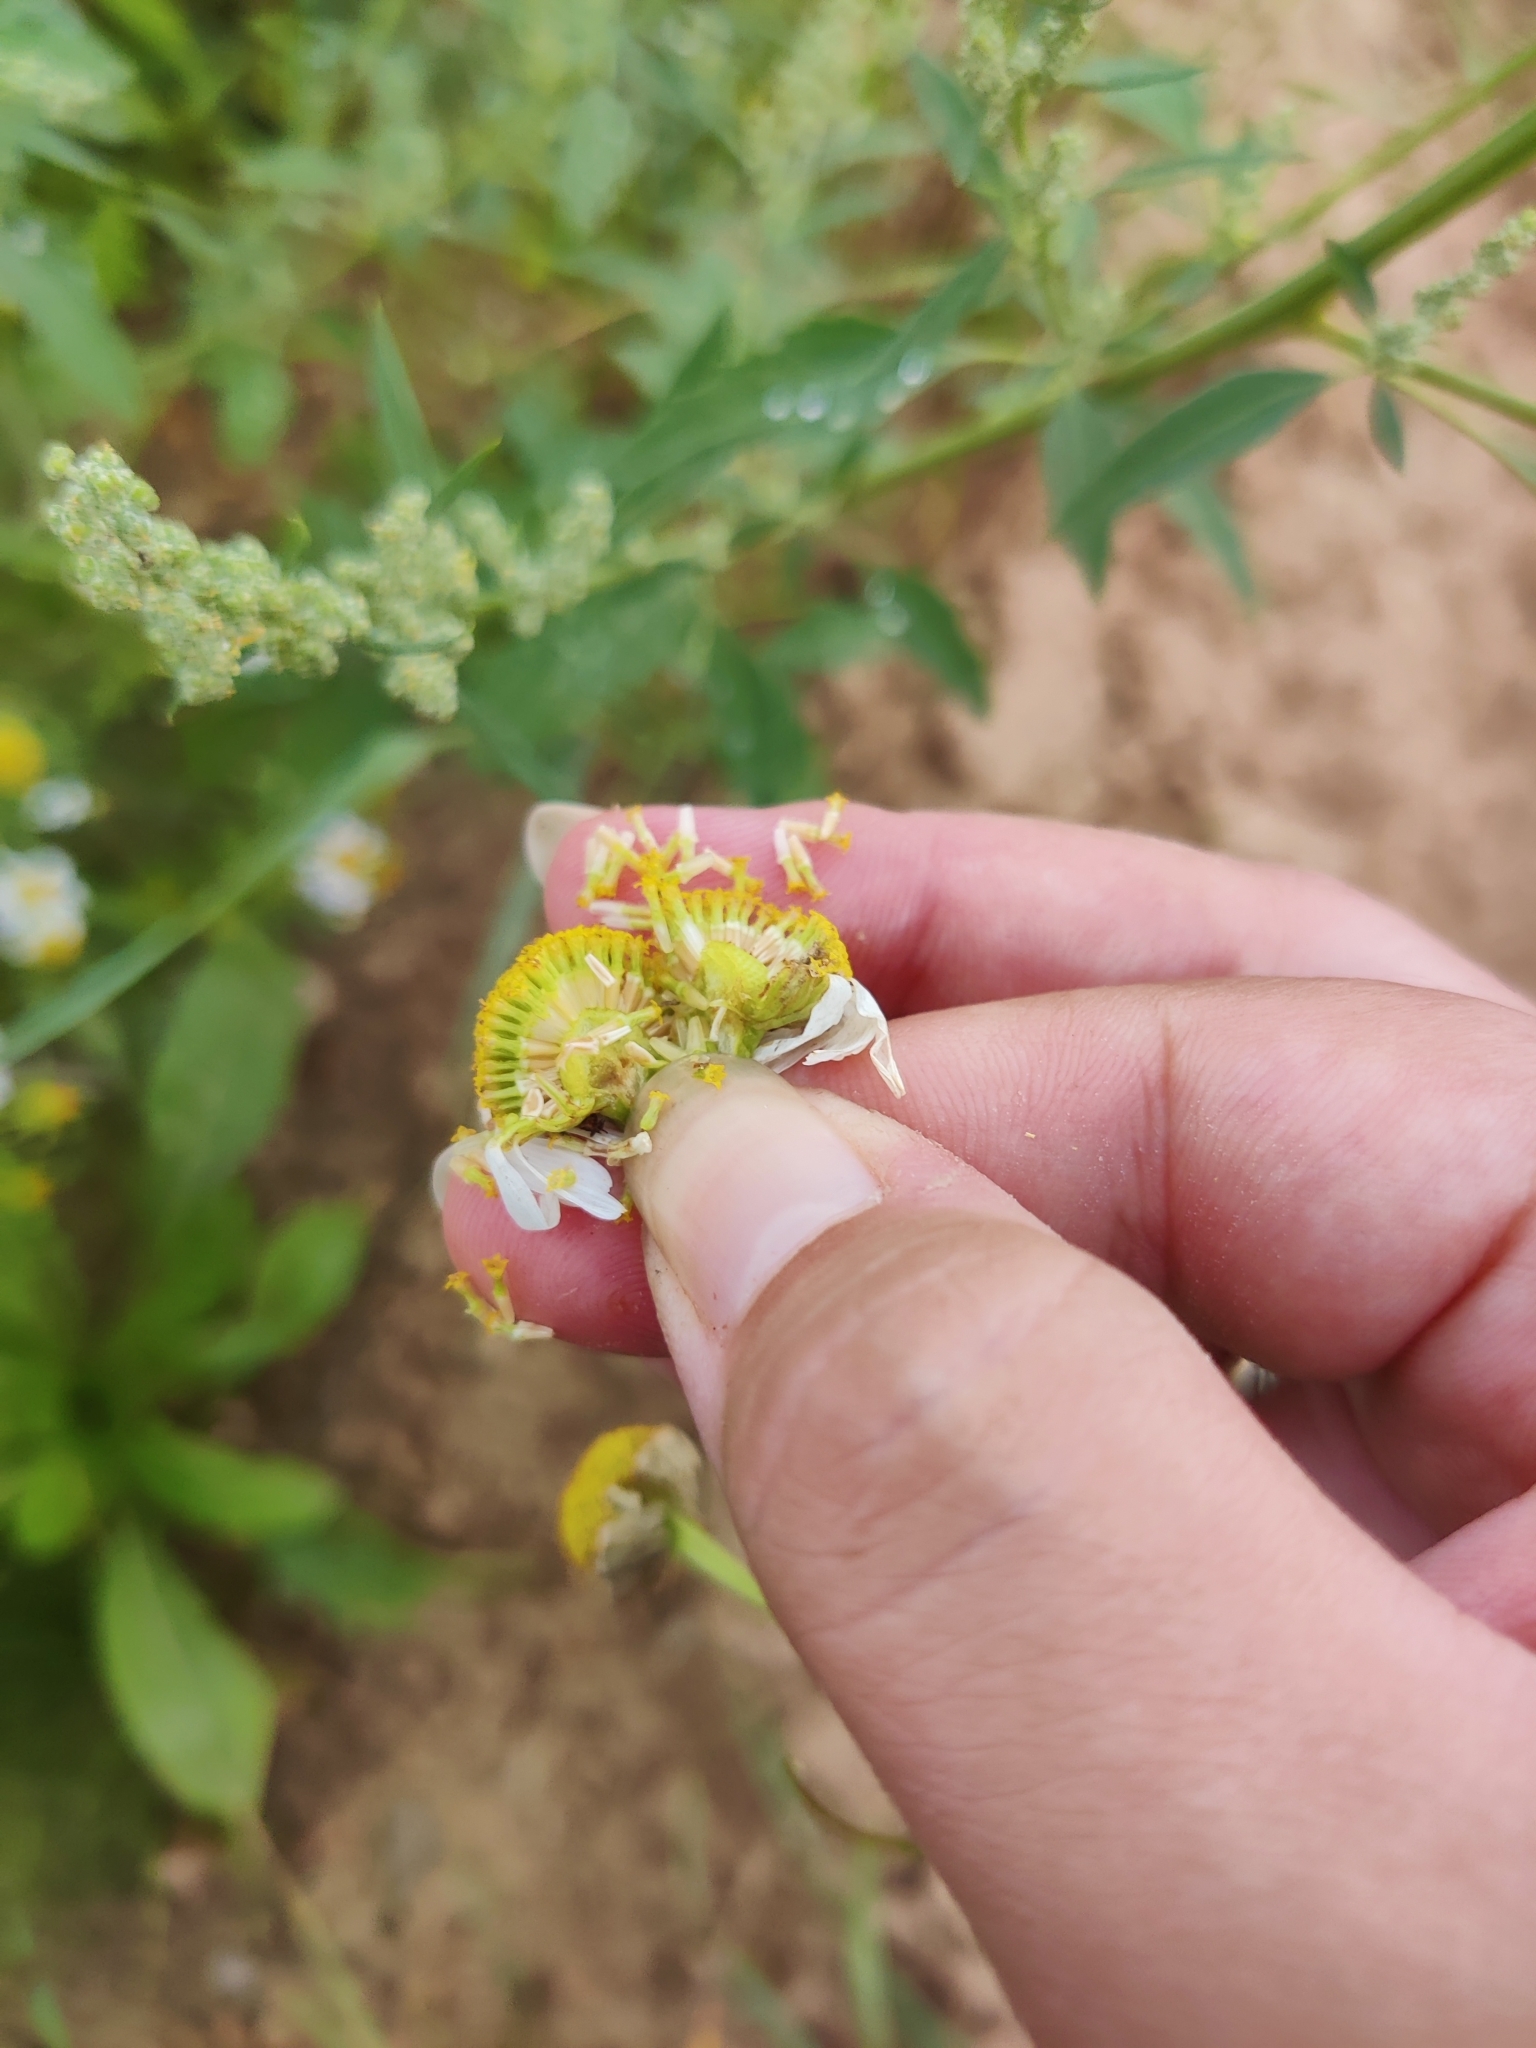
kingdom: Plantae
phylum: Tracheophyta
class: Magnoliopsida
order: Asterales
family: Asteraceae
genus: Tripleurospermum
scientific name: Tripleurospermum inodorum
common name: Scentless mayweed
